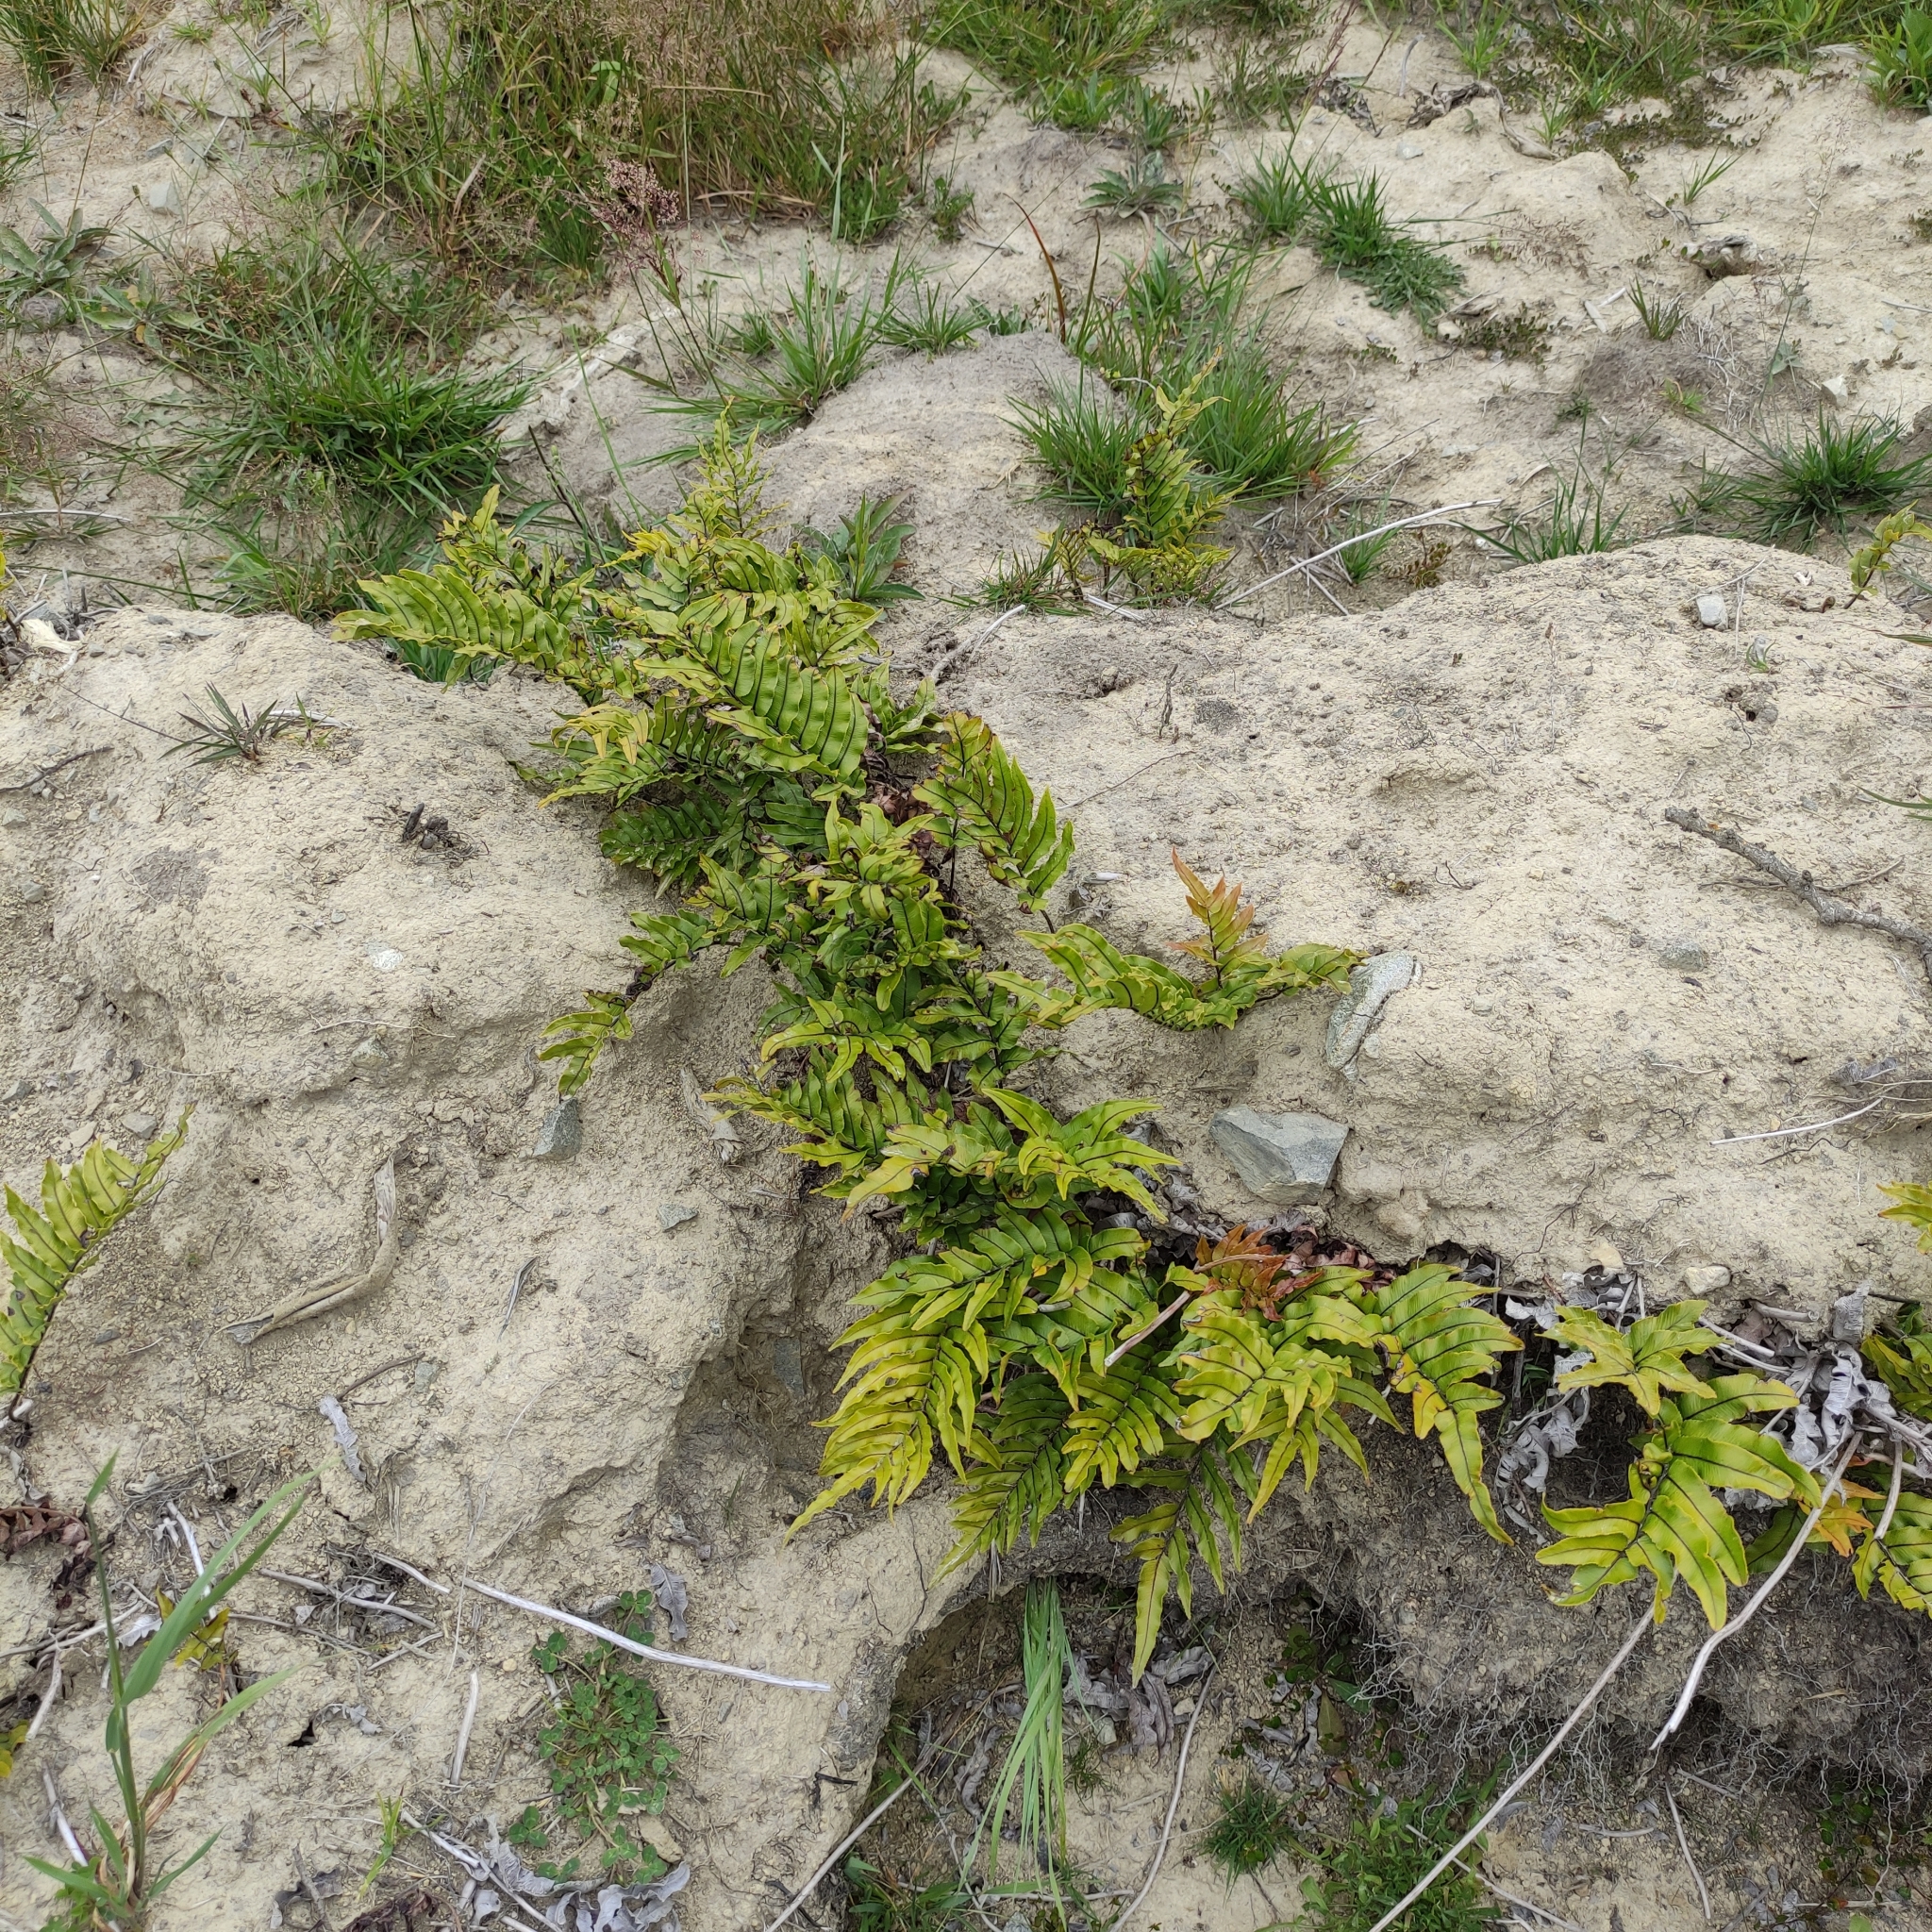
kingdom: Plantae
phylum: Tracheophyta
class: Polypodiopsida
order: Polypodiales
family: Blechnaceae
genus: Parablechnum
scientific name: Parablechnum montanum
